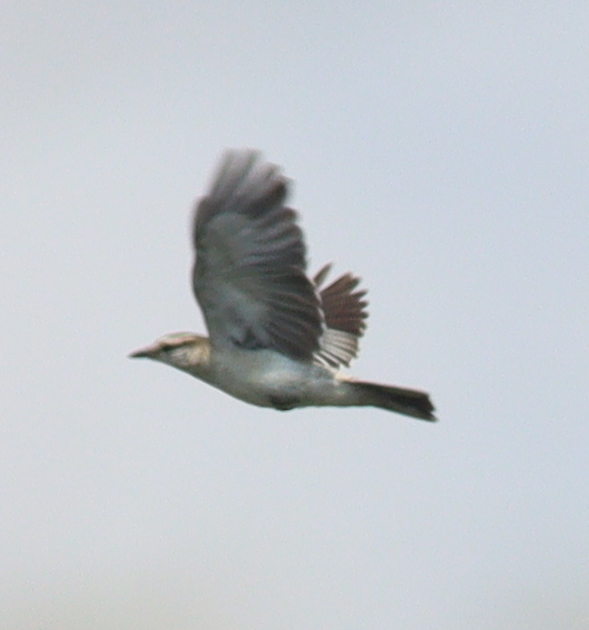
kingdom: Animalia
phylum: Chordata
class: Aves
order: Passeriformes
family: Campephagidae
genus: Lalage
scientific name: Lalage sueurii
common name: White-shouldered triller
